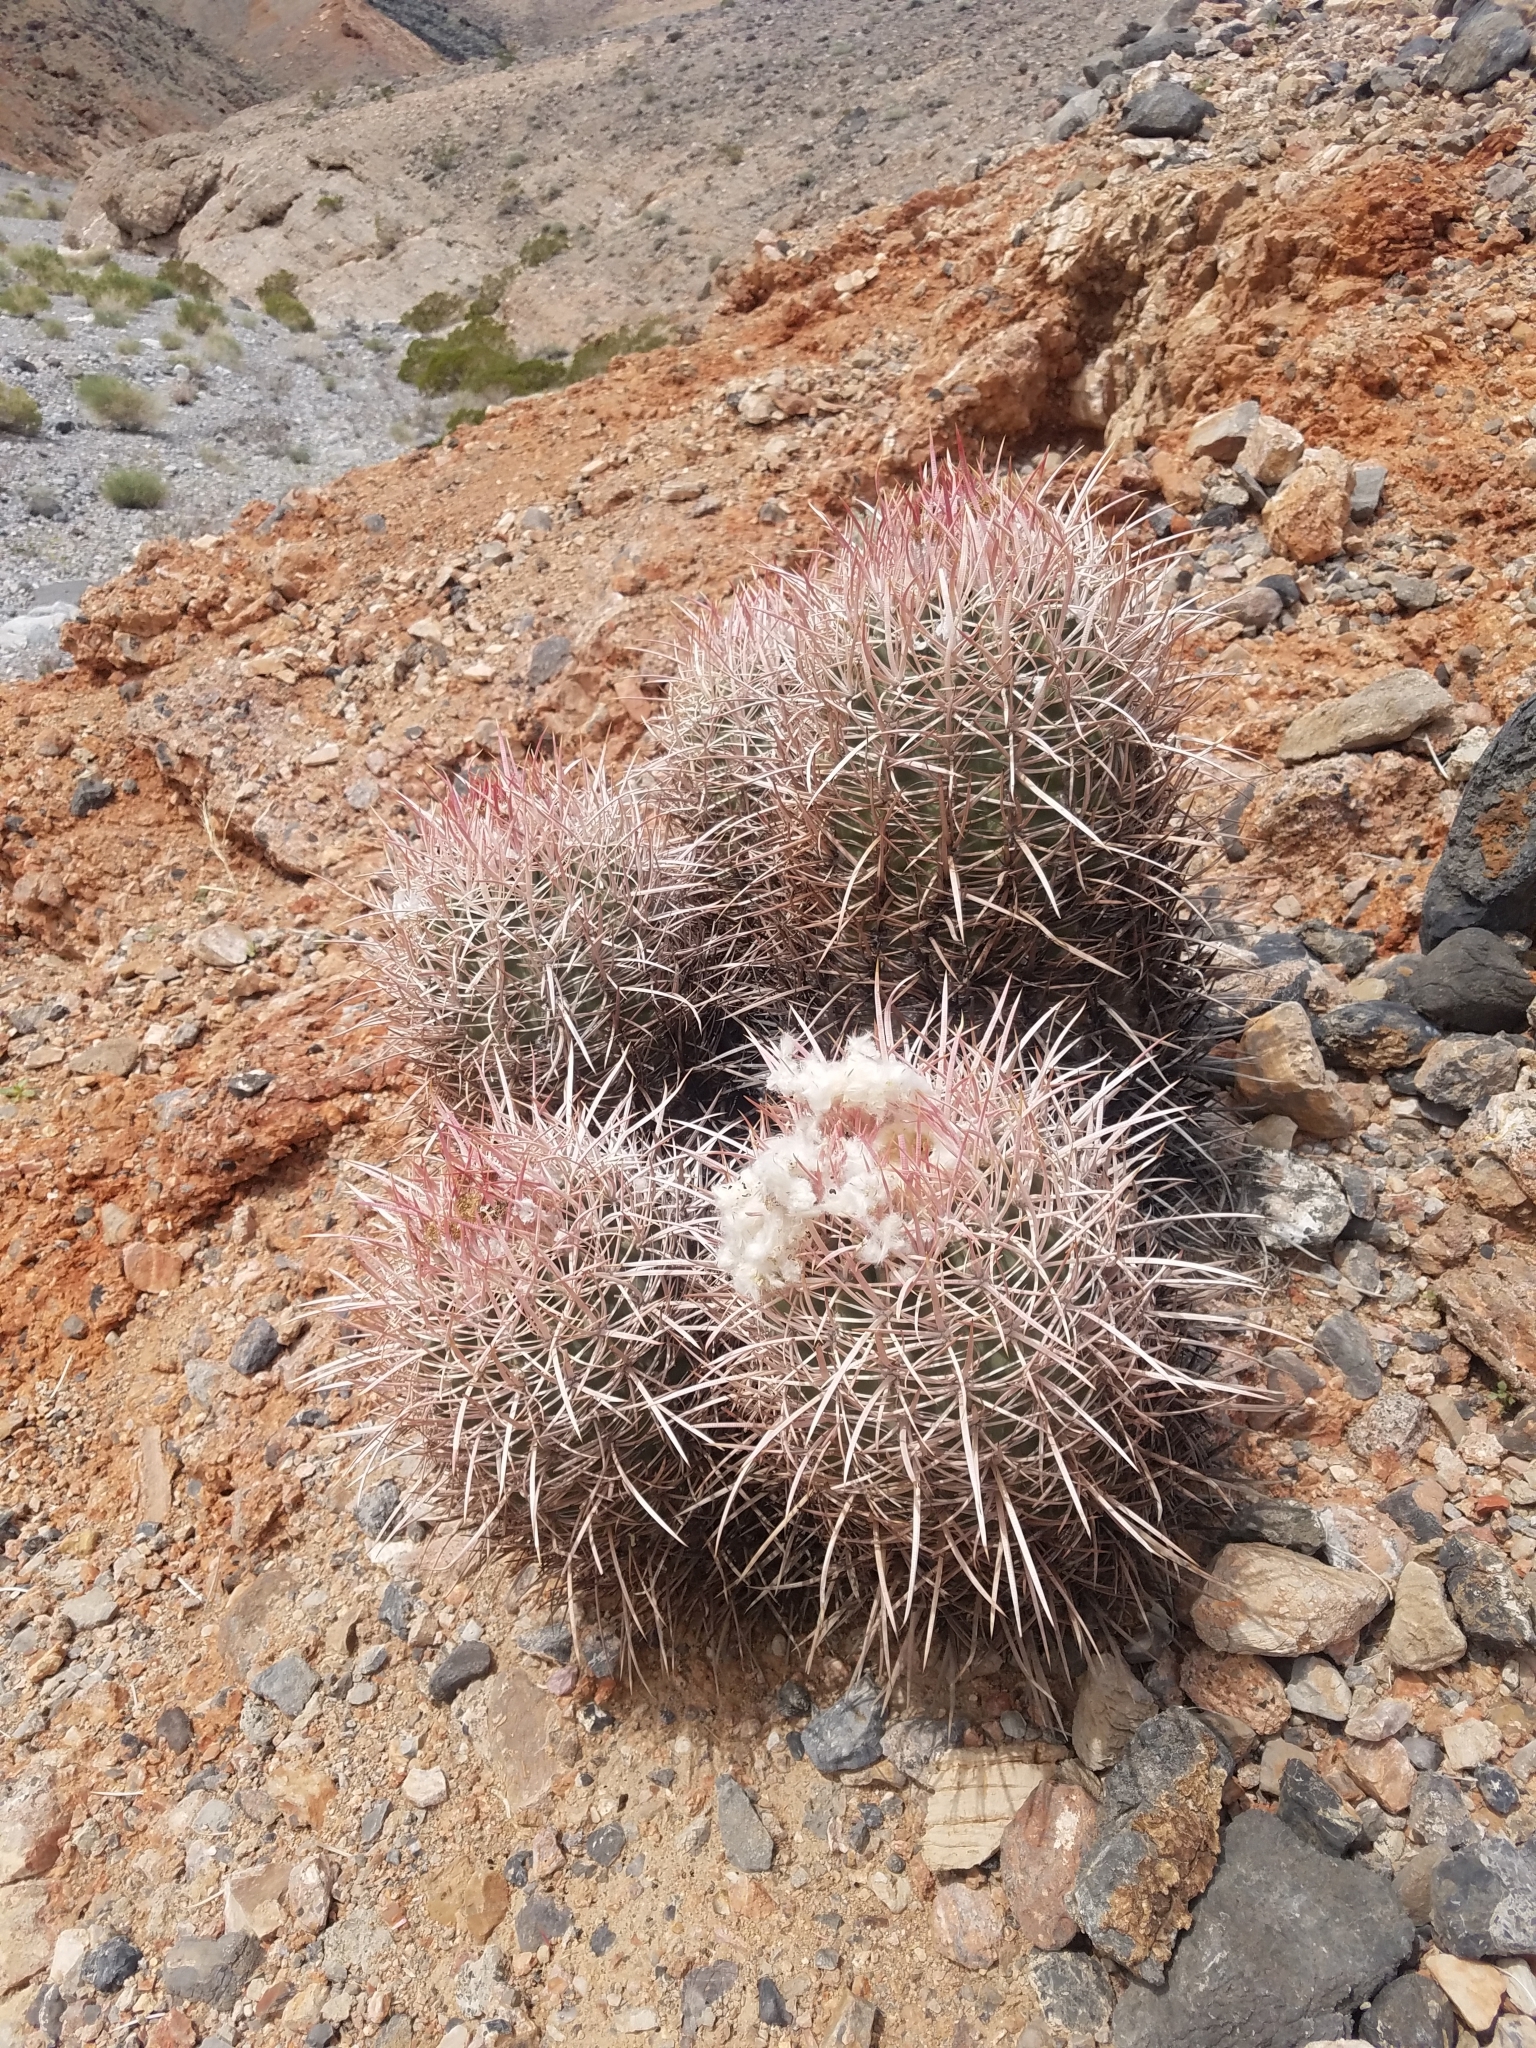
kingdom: Plantae
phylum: Tracheophyta
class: Magnoliopsida
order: Caryophyllales
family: Cactaceae
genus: Echinocactus
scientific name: Echinocactus polycephalus
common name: Cottontop cactus
